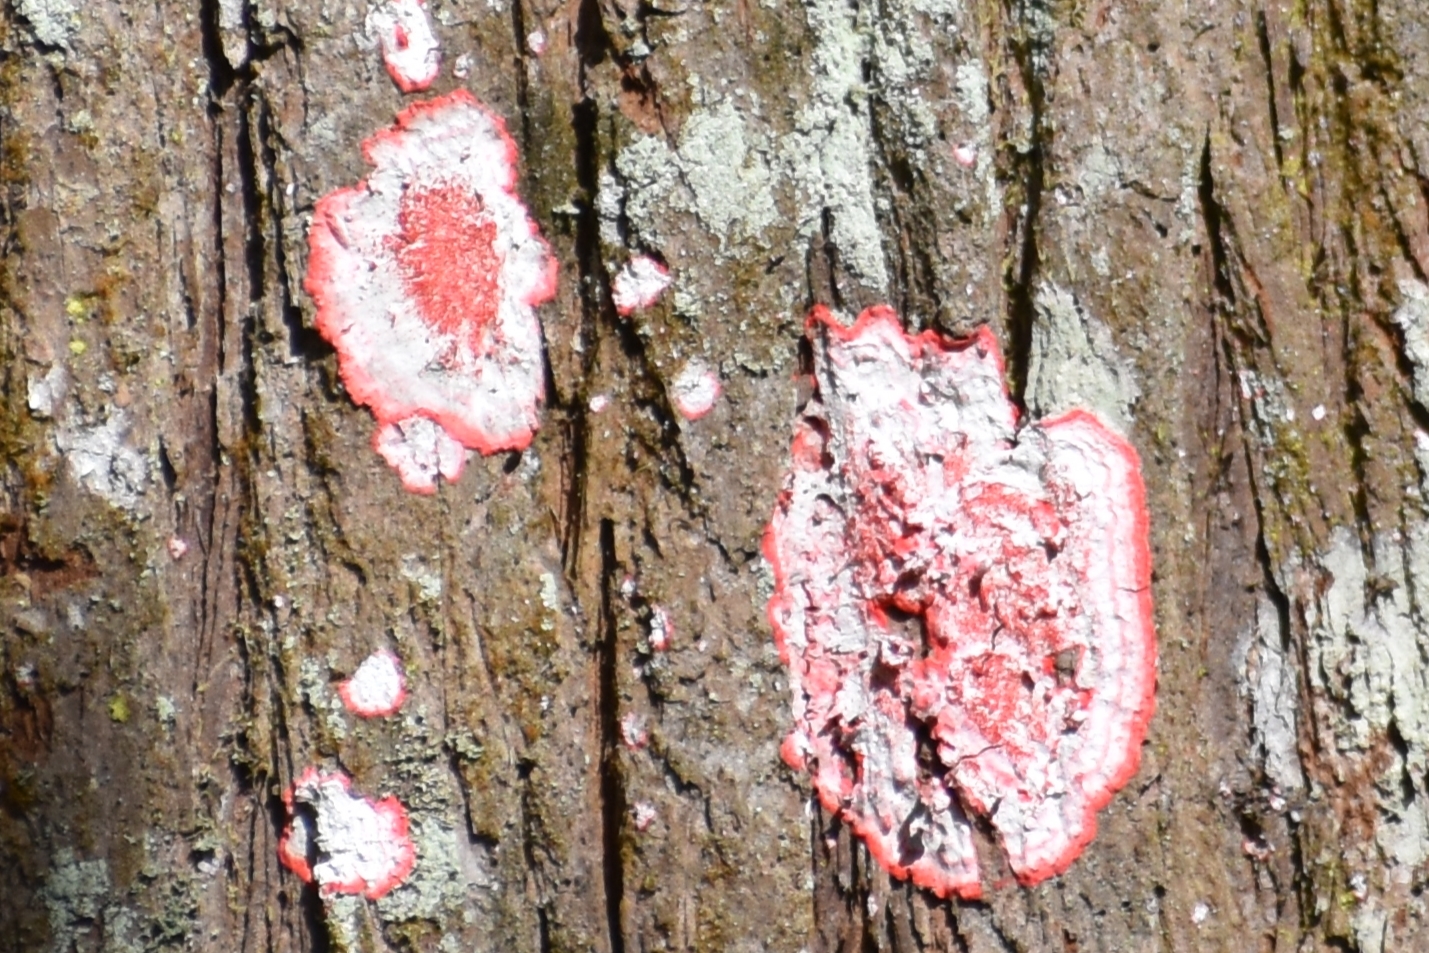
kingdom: Fungi
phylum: Ascomycota
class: Arthoniomycetes
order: Arthoniales
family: Arthoniaceae
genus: Herpothallon
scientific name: Herpothallon rubrocinctum
